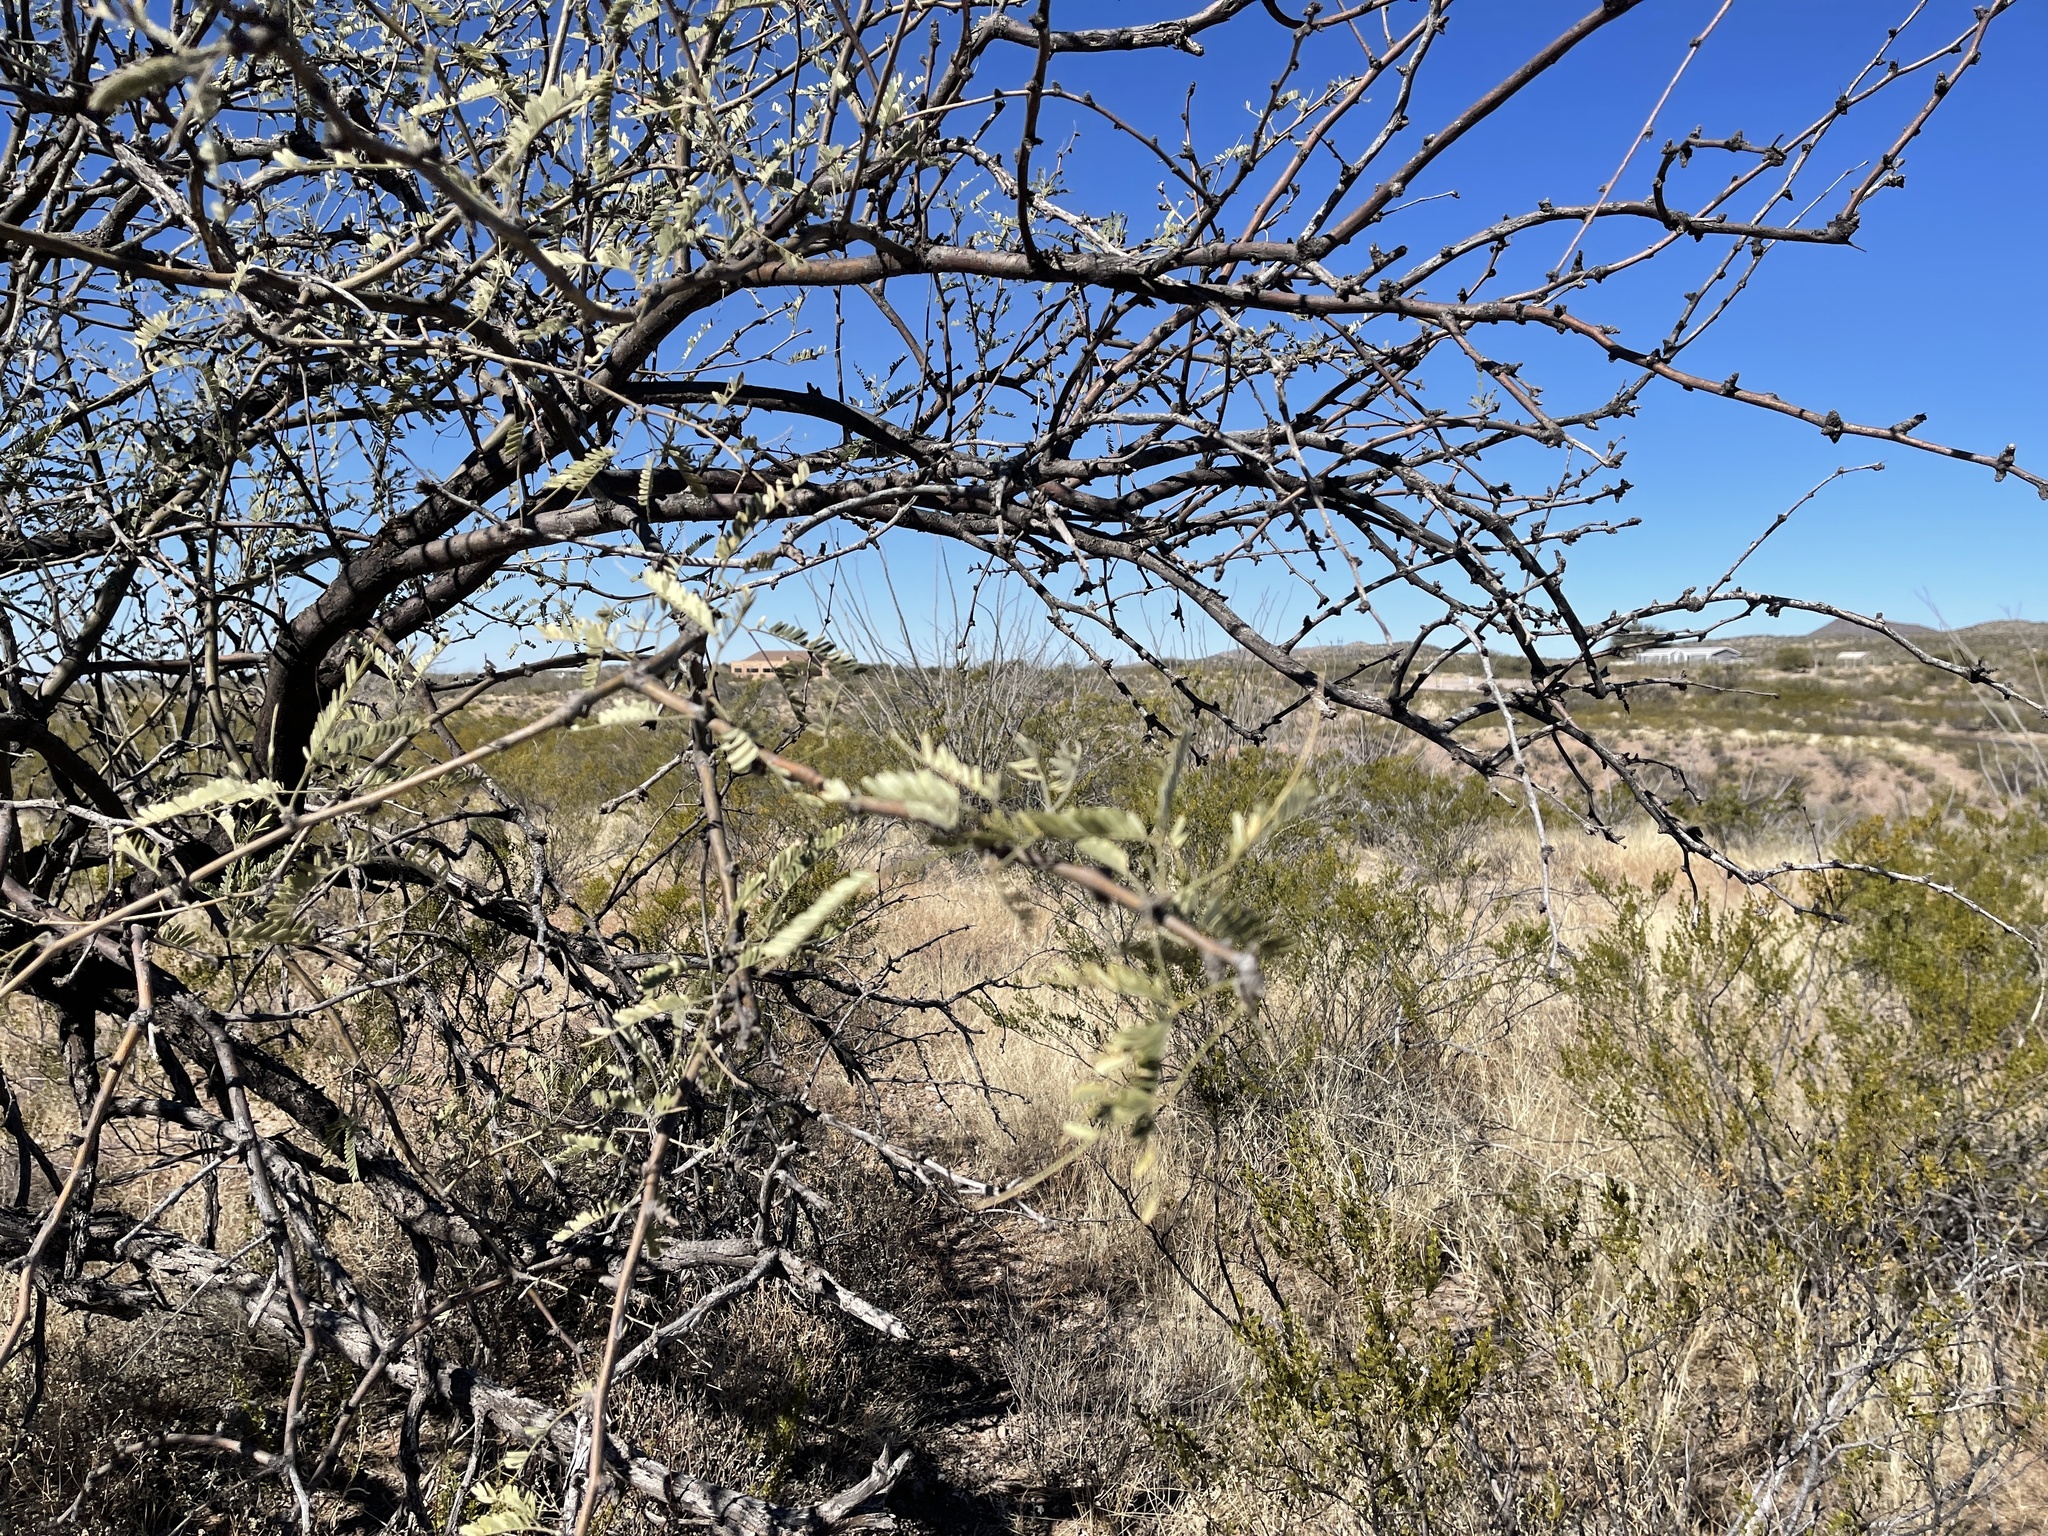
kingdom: Plantae
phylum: Tracheophyta
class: Magnoliopsida
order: Fabales
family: Fabaceae
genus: Prosopis
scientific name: Prosopis velutina
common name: Velvet mesquite
